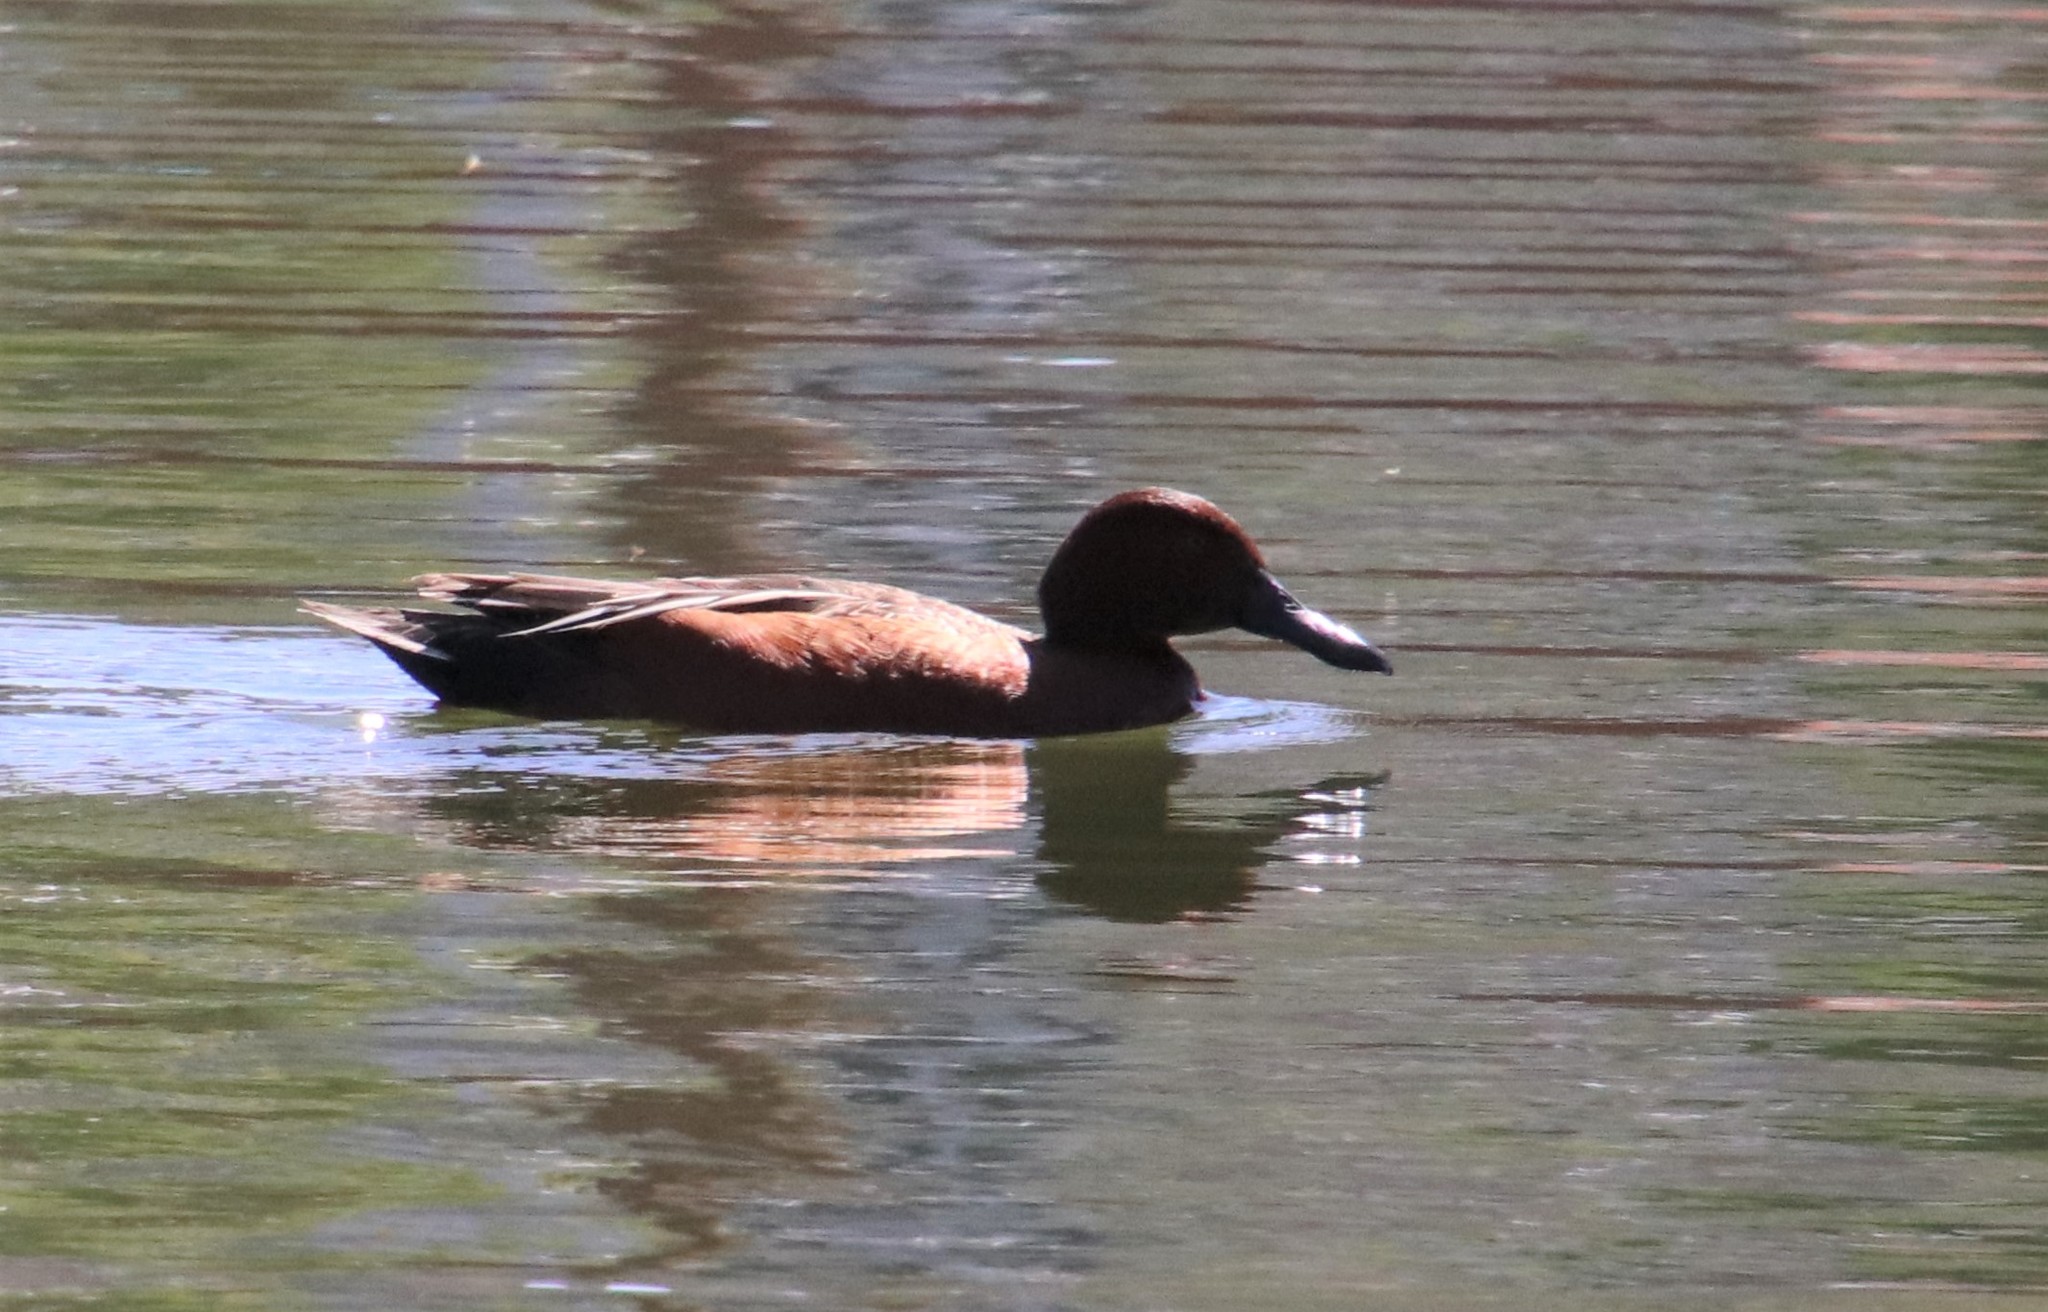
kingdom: Animalia
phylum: Chordata
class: Aves
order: Anseriformes
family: Anatidae
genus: Spatula
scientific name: Spatula cyanoptera
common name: Cinnamon teal
